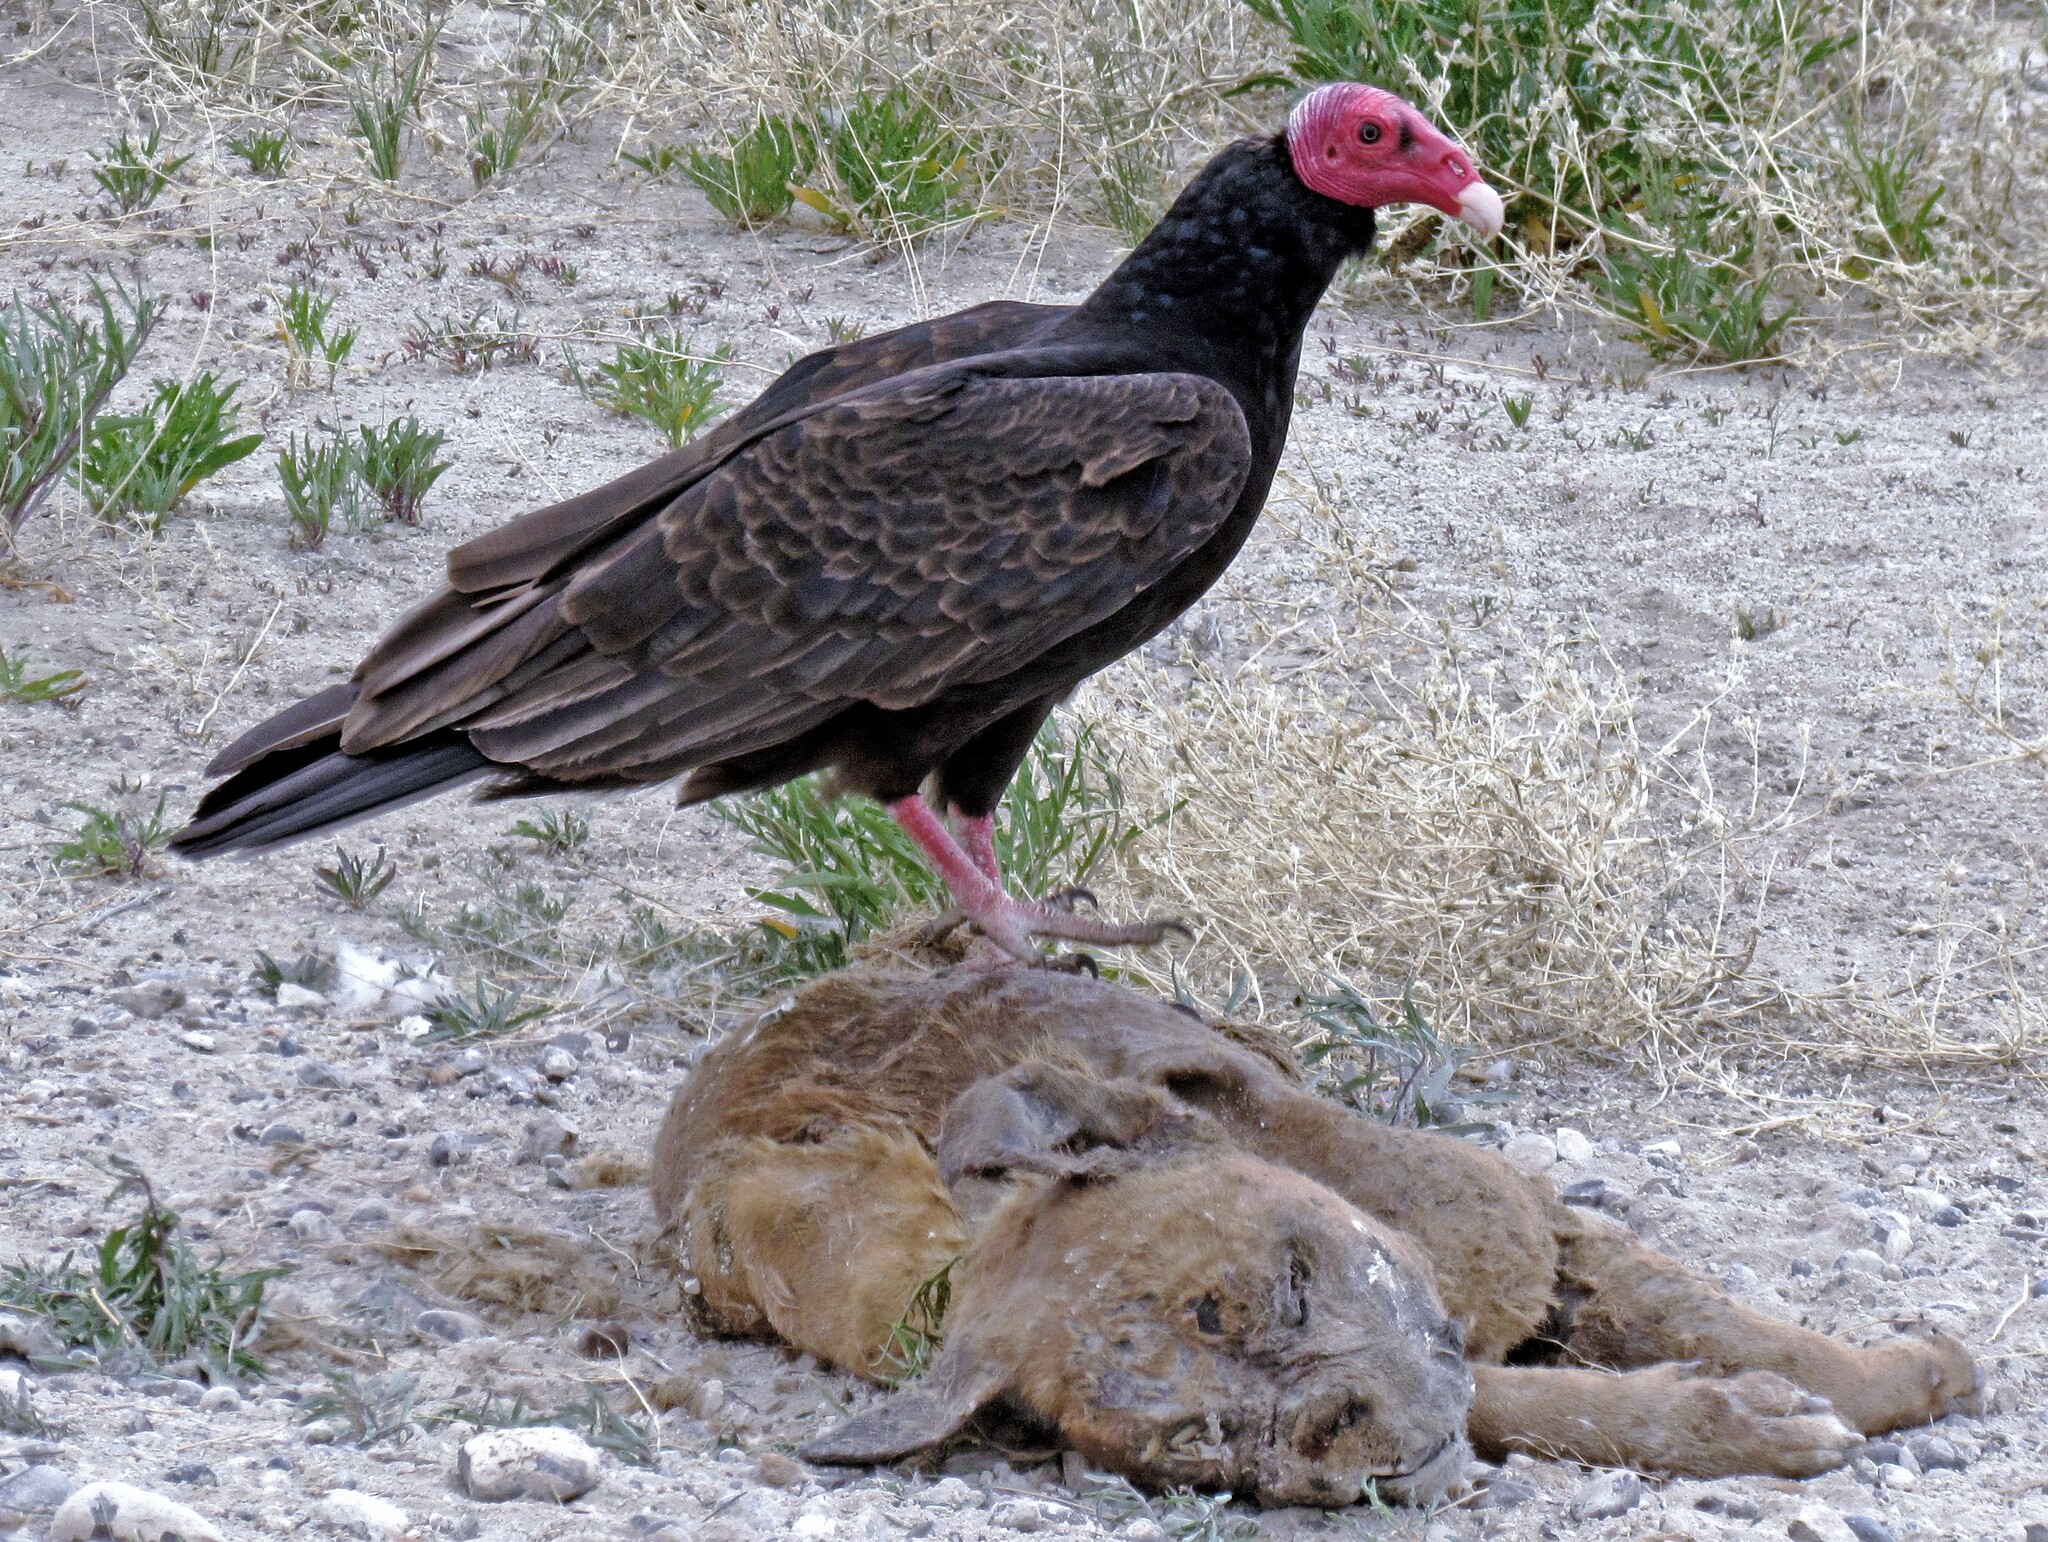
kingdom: Animalia
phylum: Chordata
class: Aves
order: Accipitriformes
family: Cathartidae
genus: Cathartes
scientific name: Cathartes aura
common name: Turkey vulture
